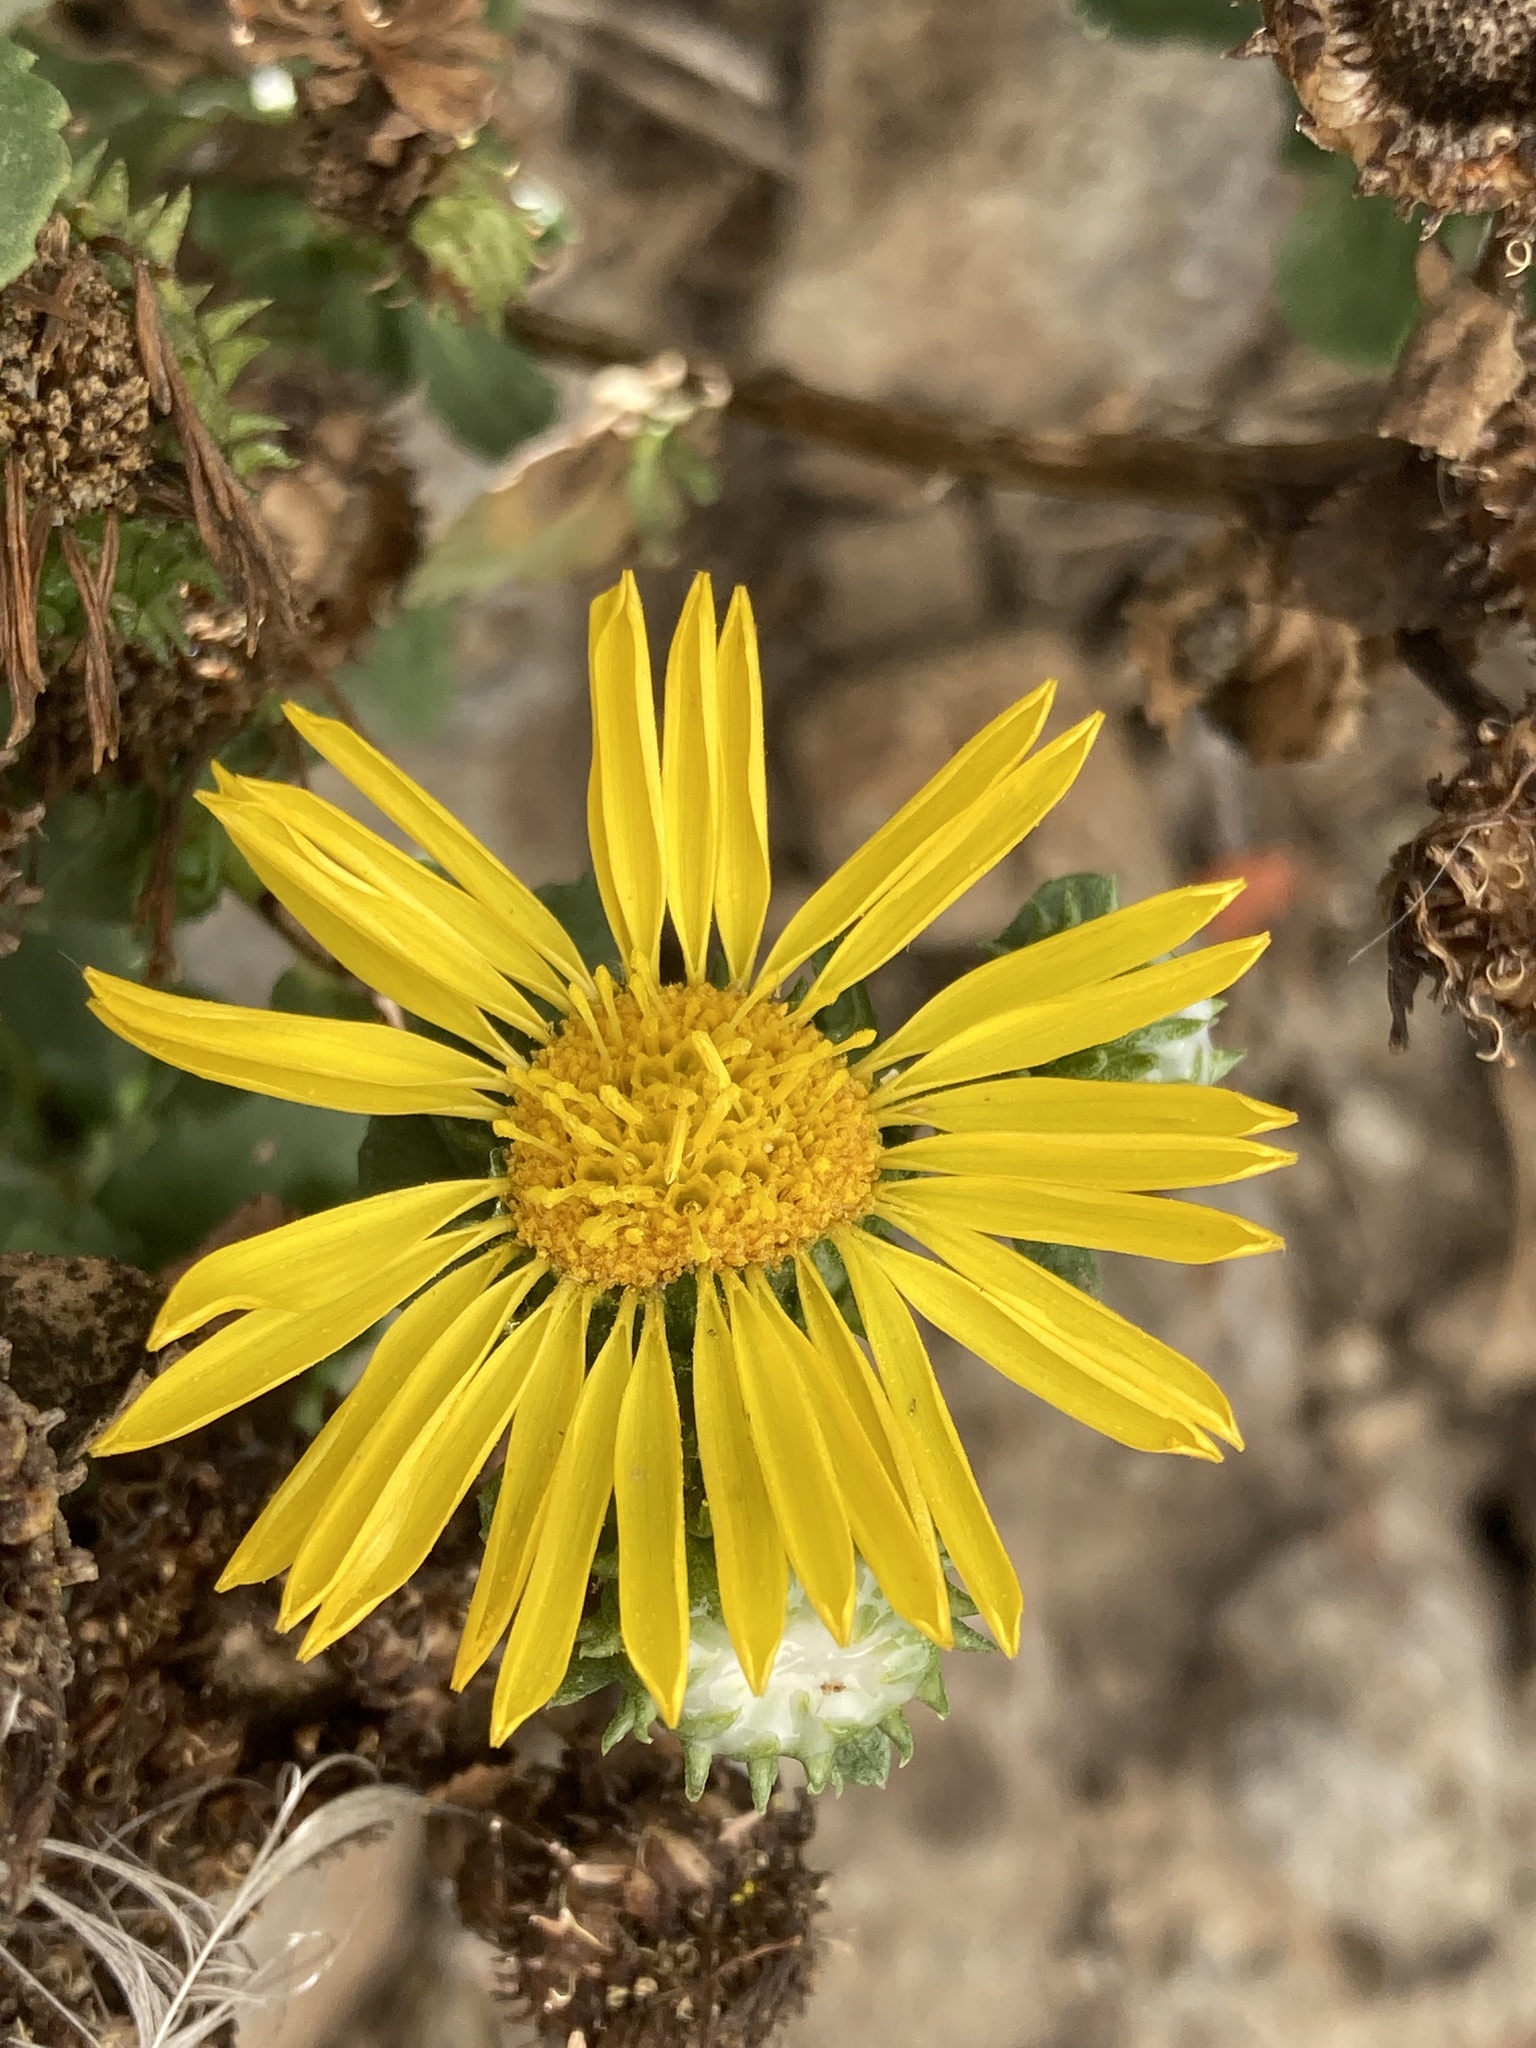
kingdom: Plantae
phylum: Tracheophyta
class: Magnoliopsida
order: Asterales
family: Asteraceae
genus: Grindelia
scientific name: Grindelia hirsutula
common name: Hairy gumweed
